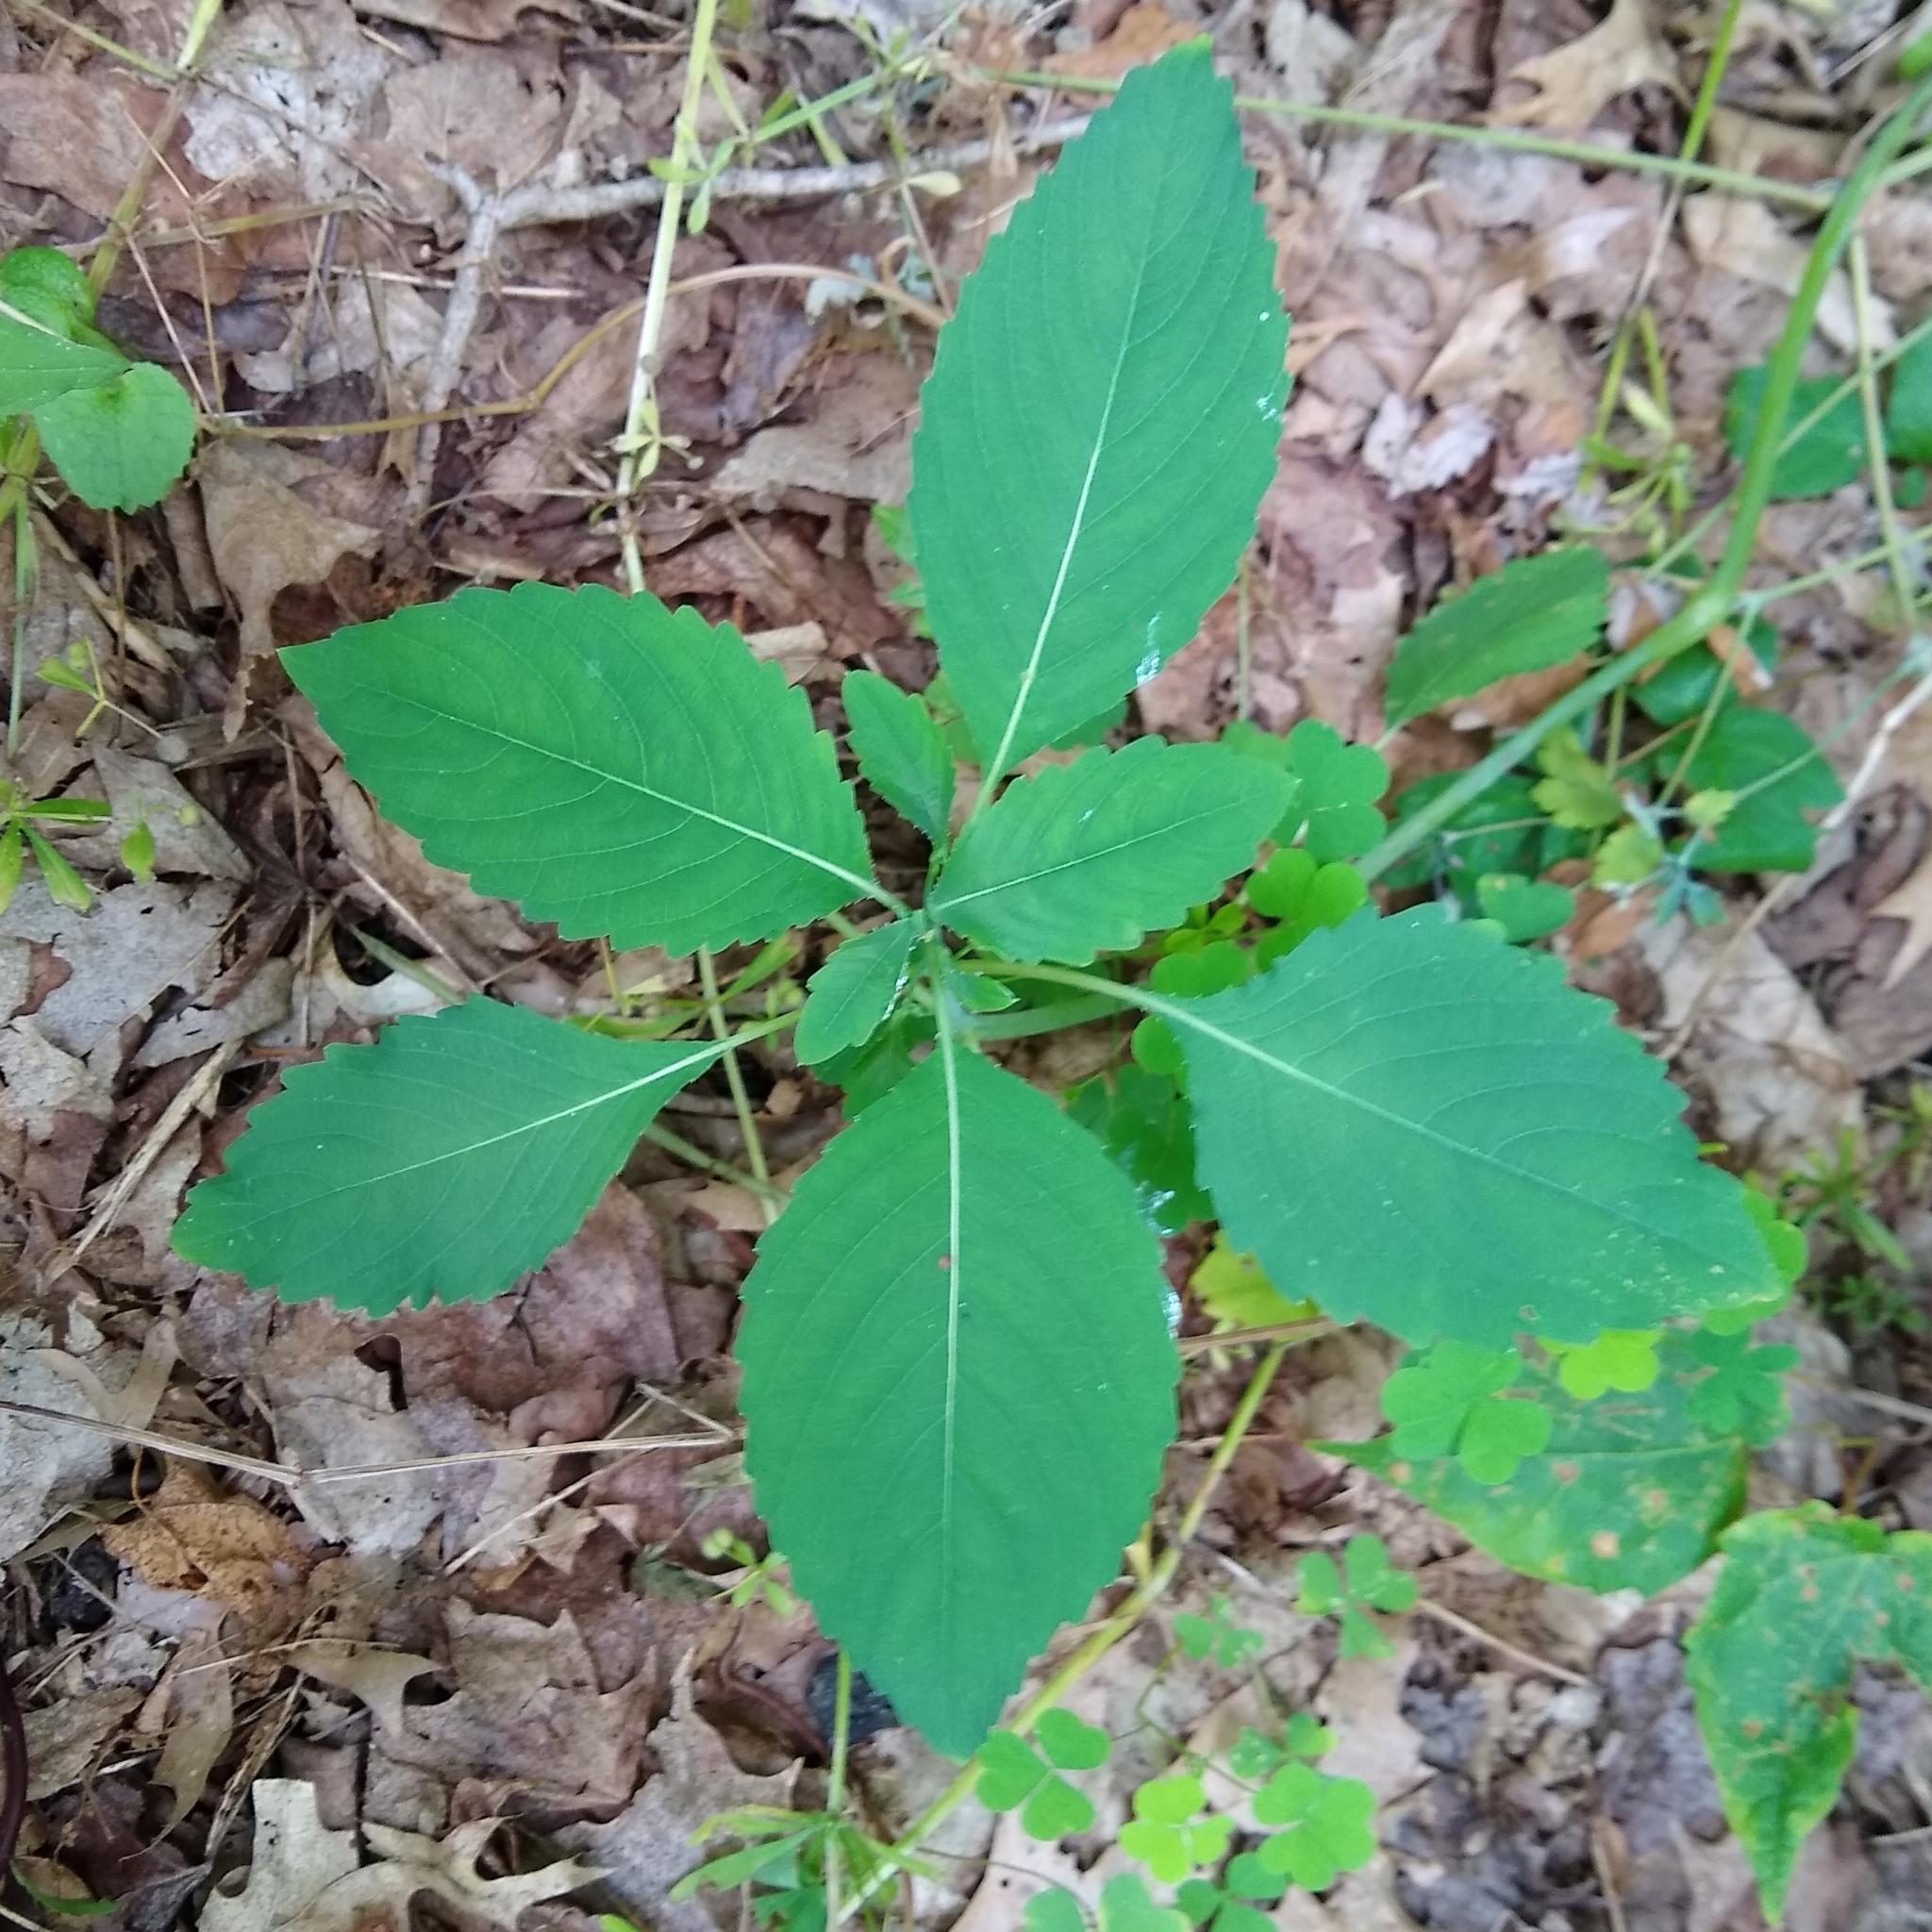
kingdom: Plantae
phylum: Tracheophyta
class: Magnoliopsida
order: Ericales
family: Balsaminaceae
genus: Impatiens
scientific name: Impatiens pallida
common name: Pale snapweed
